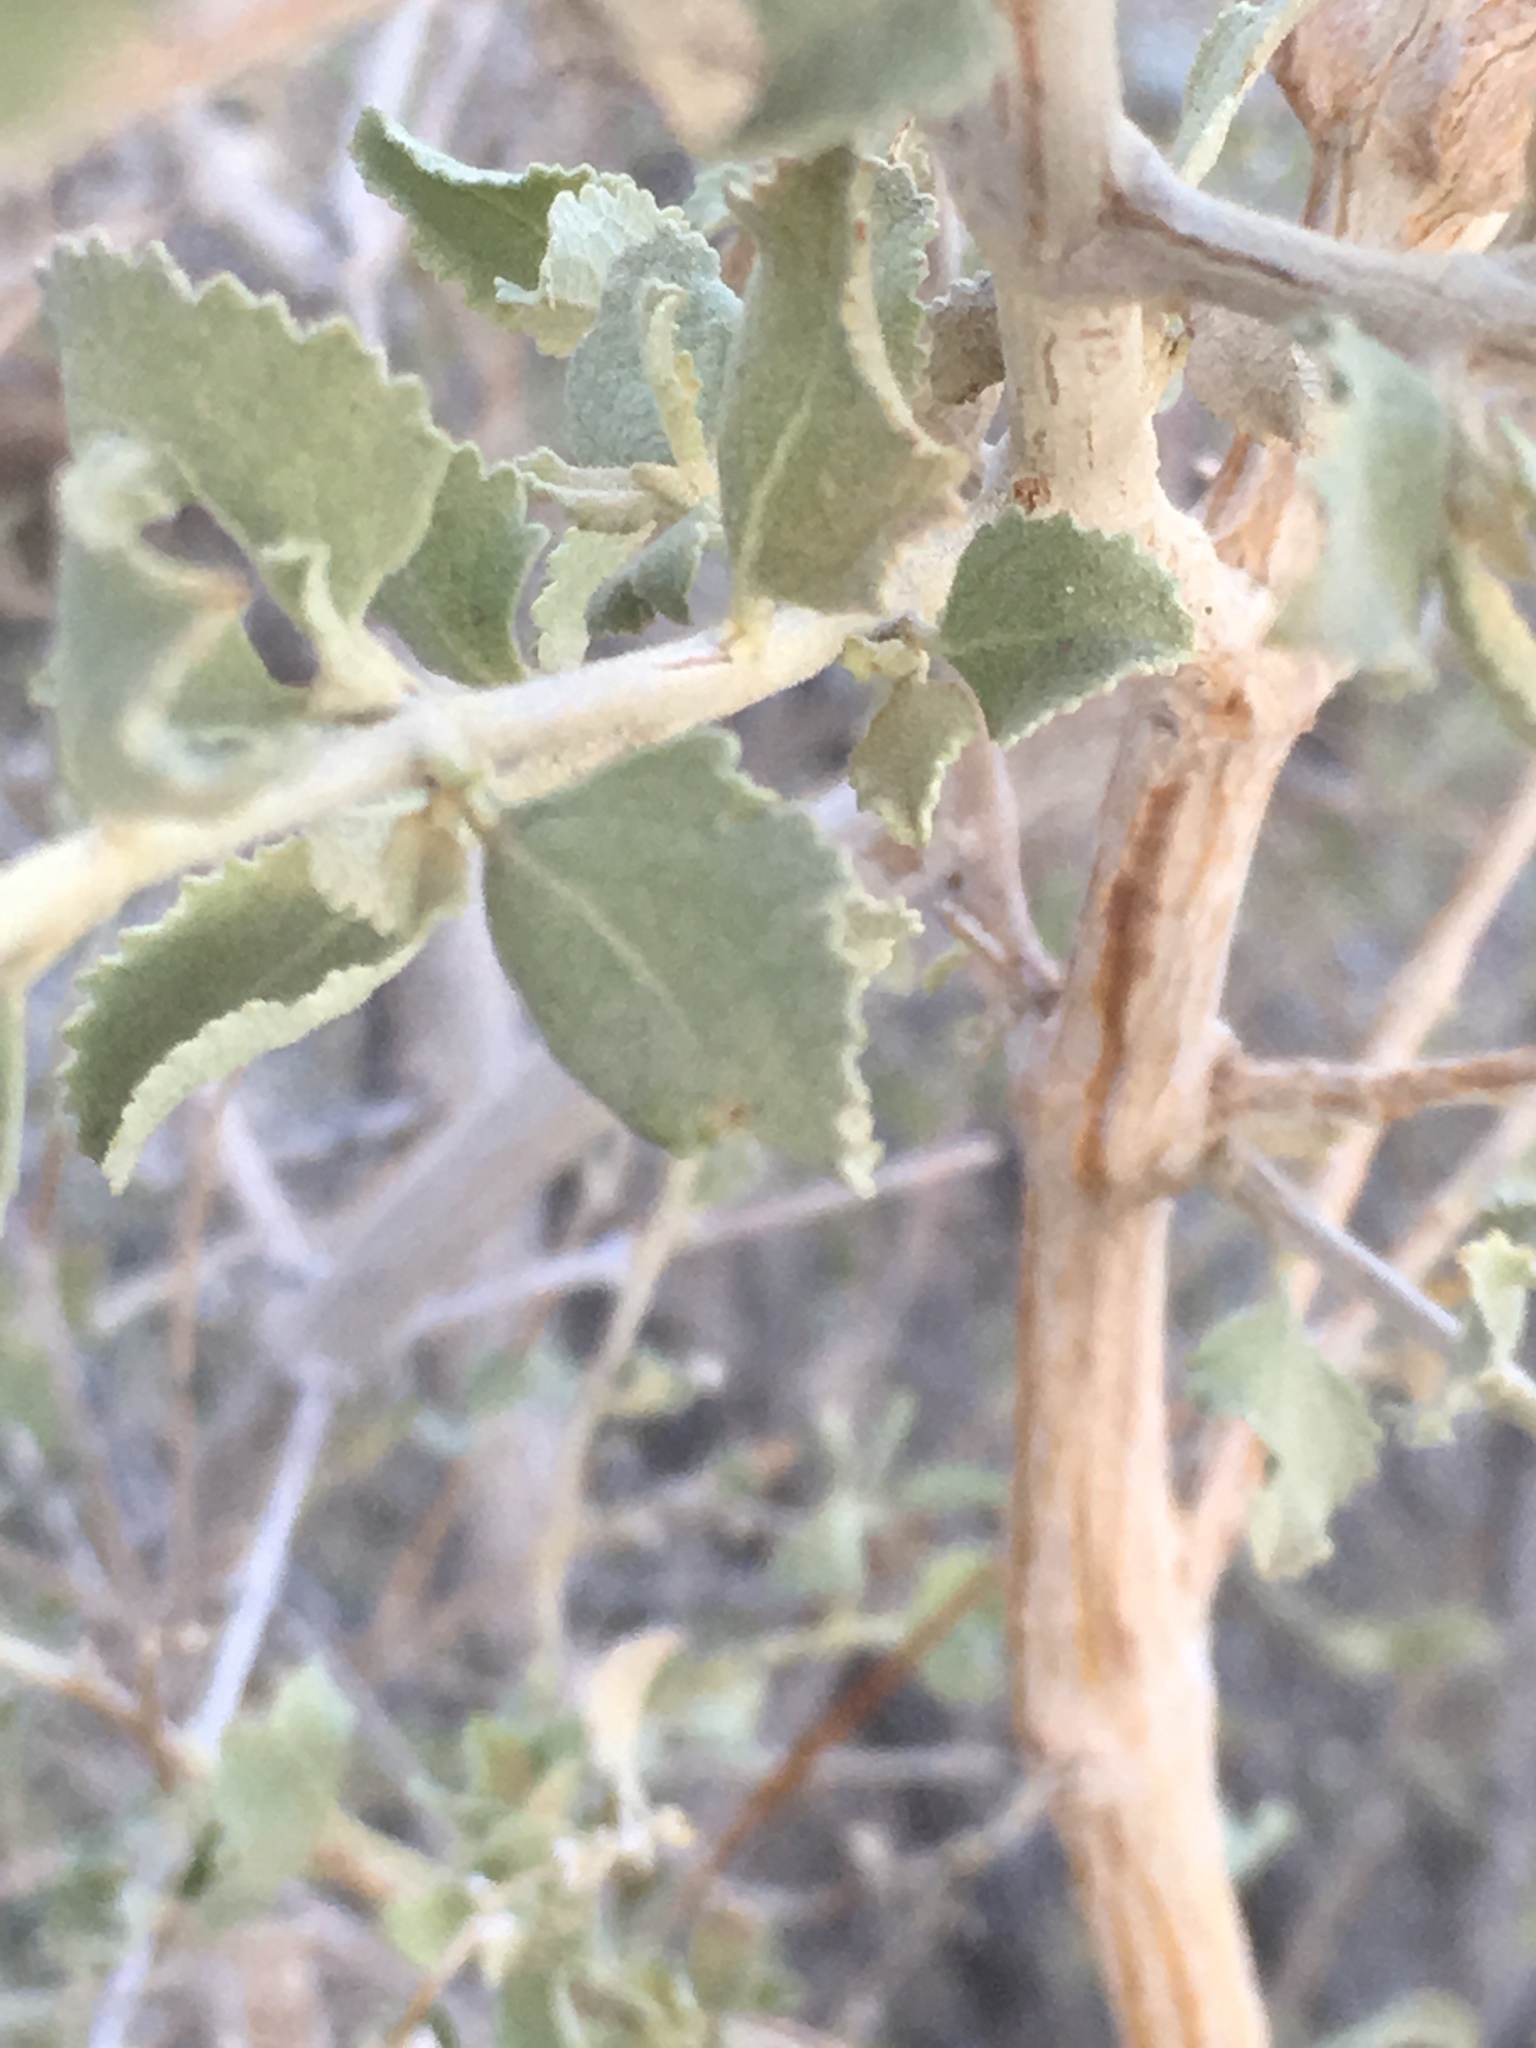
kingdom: Plantae
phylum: Tracheophyta
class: Magnoliopsida
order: Lamiales
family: Lamiaceae
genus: Condea
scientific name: Condea emoryi
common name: Chia
